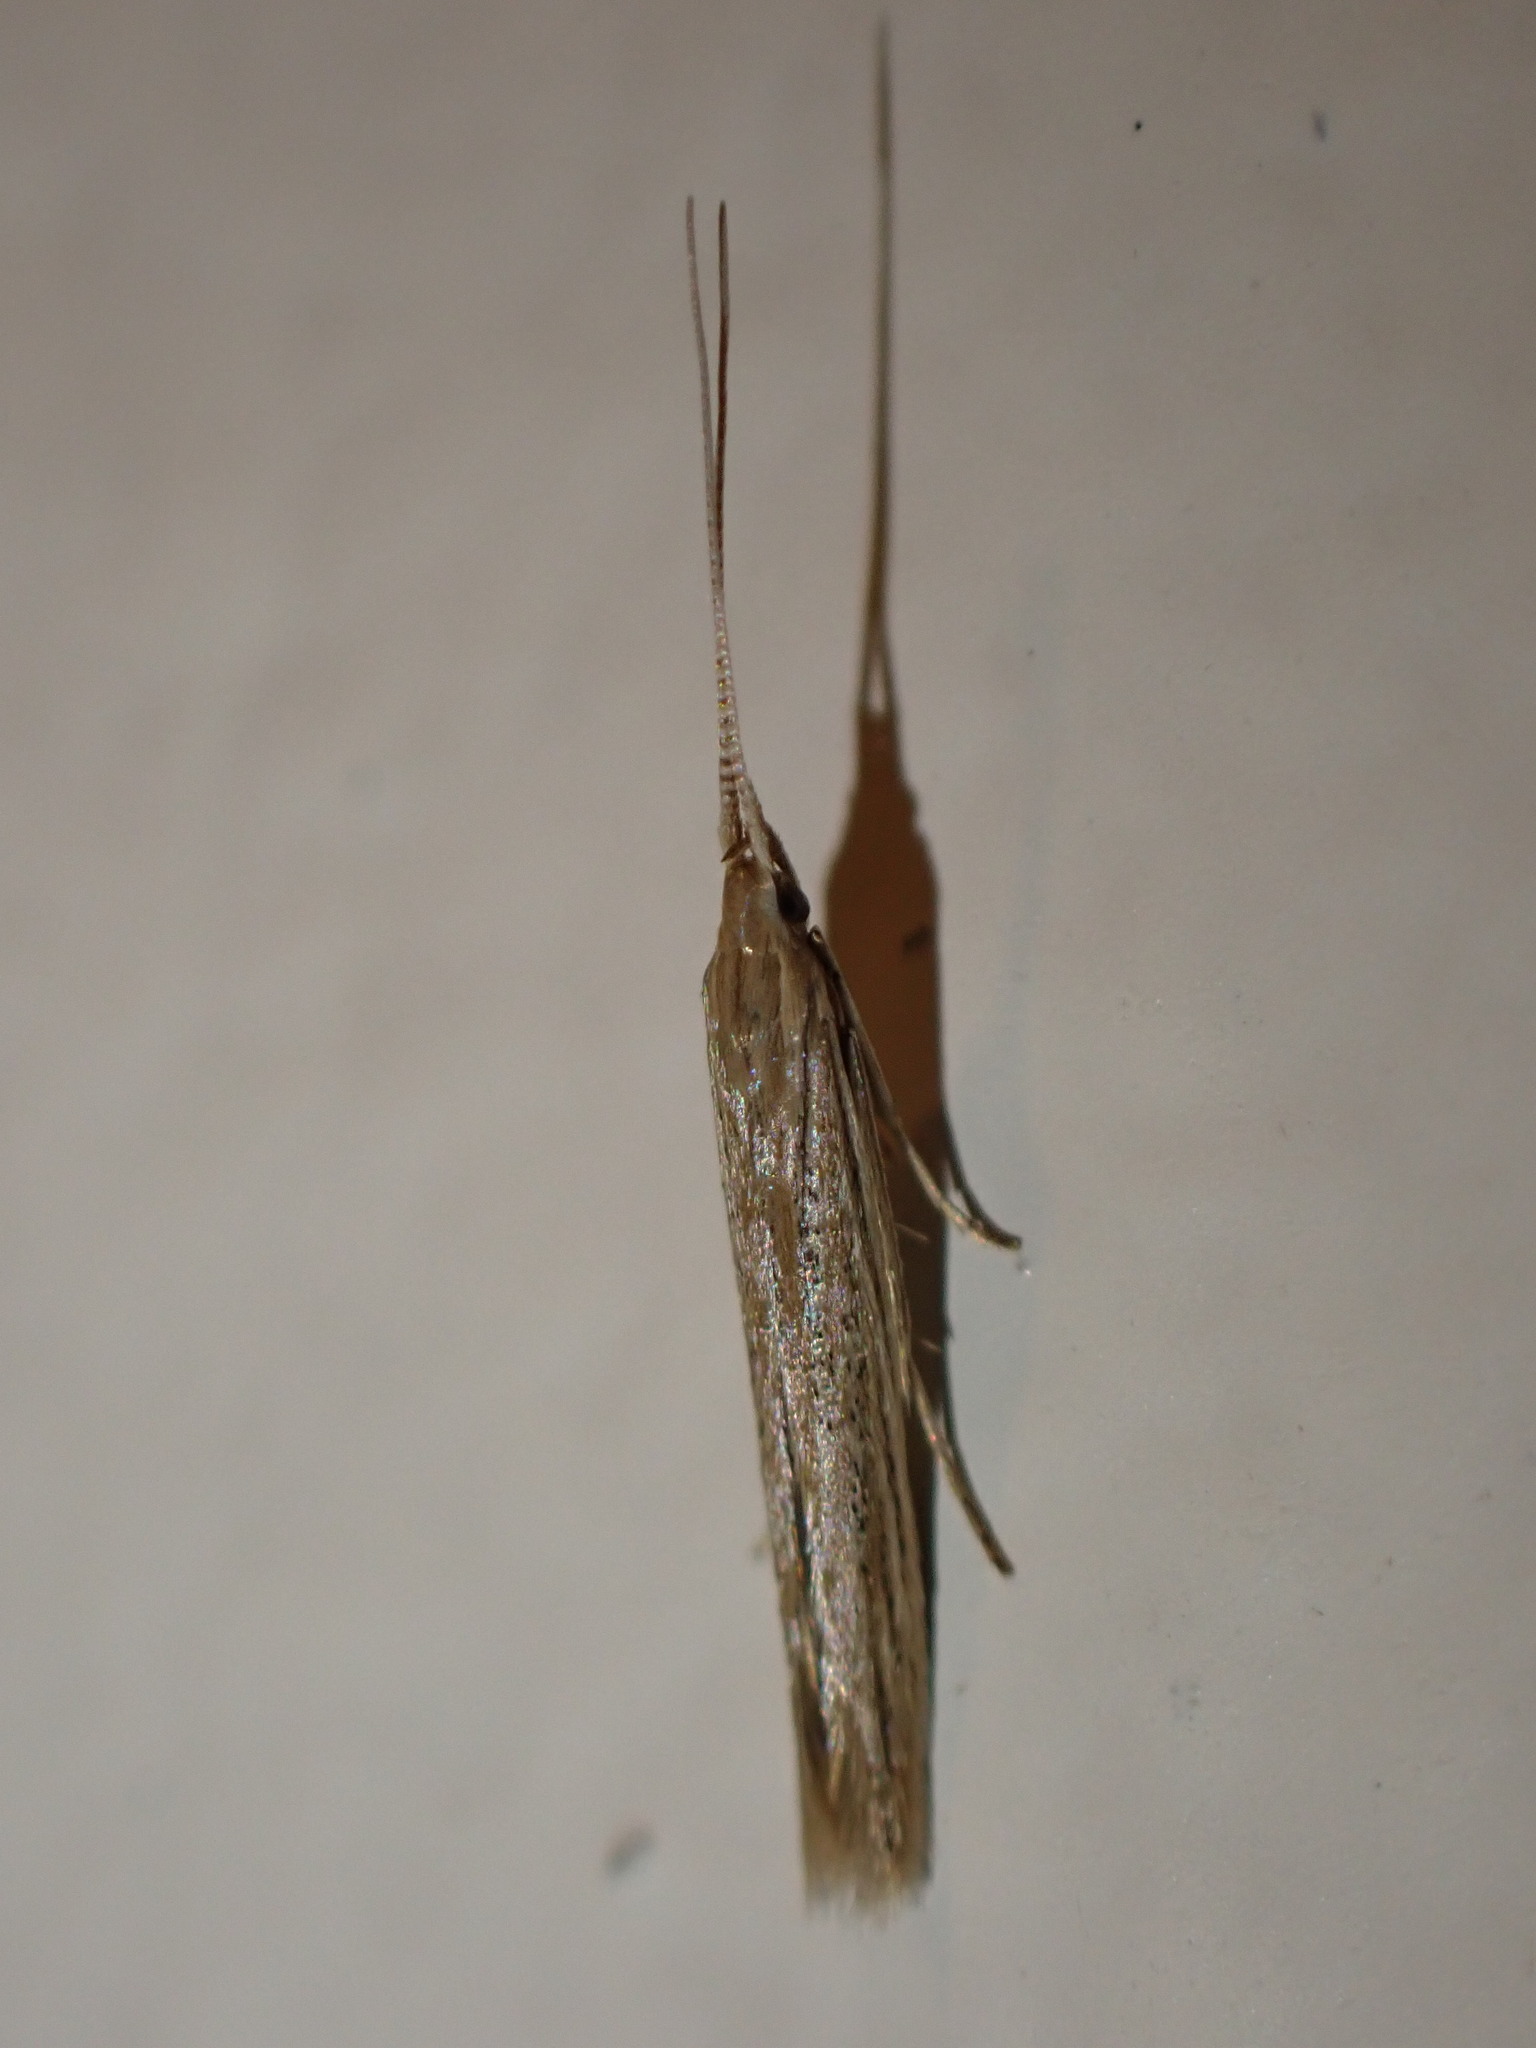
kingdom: Animalia
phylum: Arthropoda
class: Insecta
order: Lepidoptera
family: Coleophoridae
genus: Coleophora
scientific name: Coleophora versurella
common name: Pale orache case-bearer
